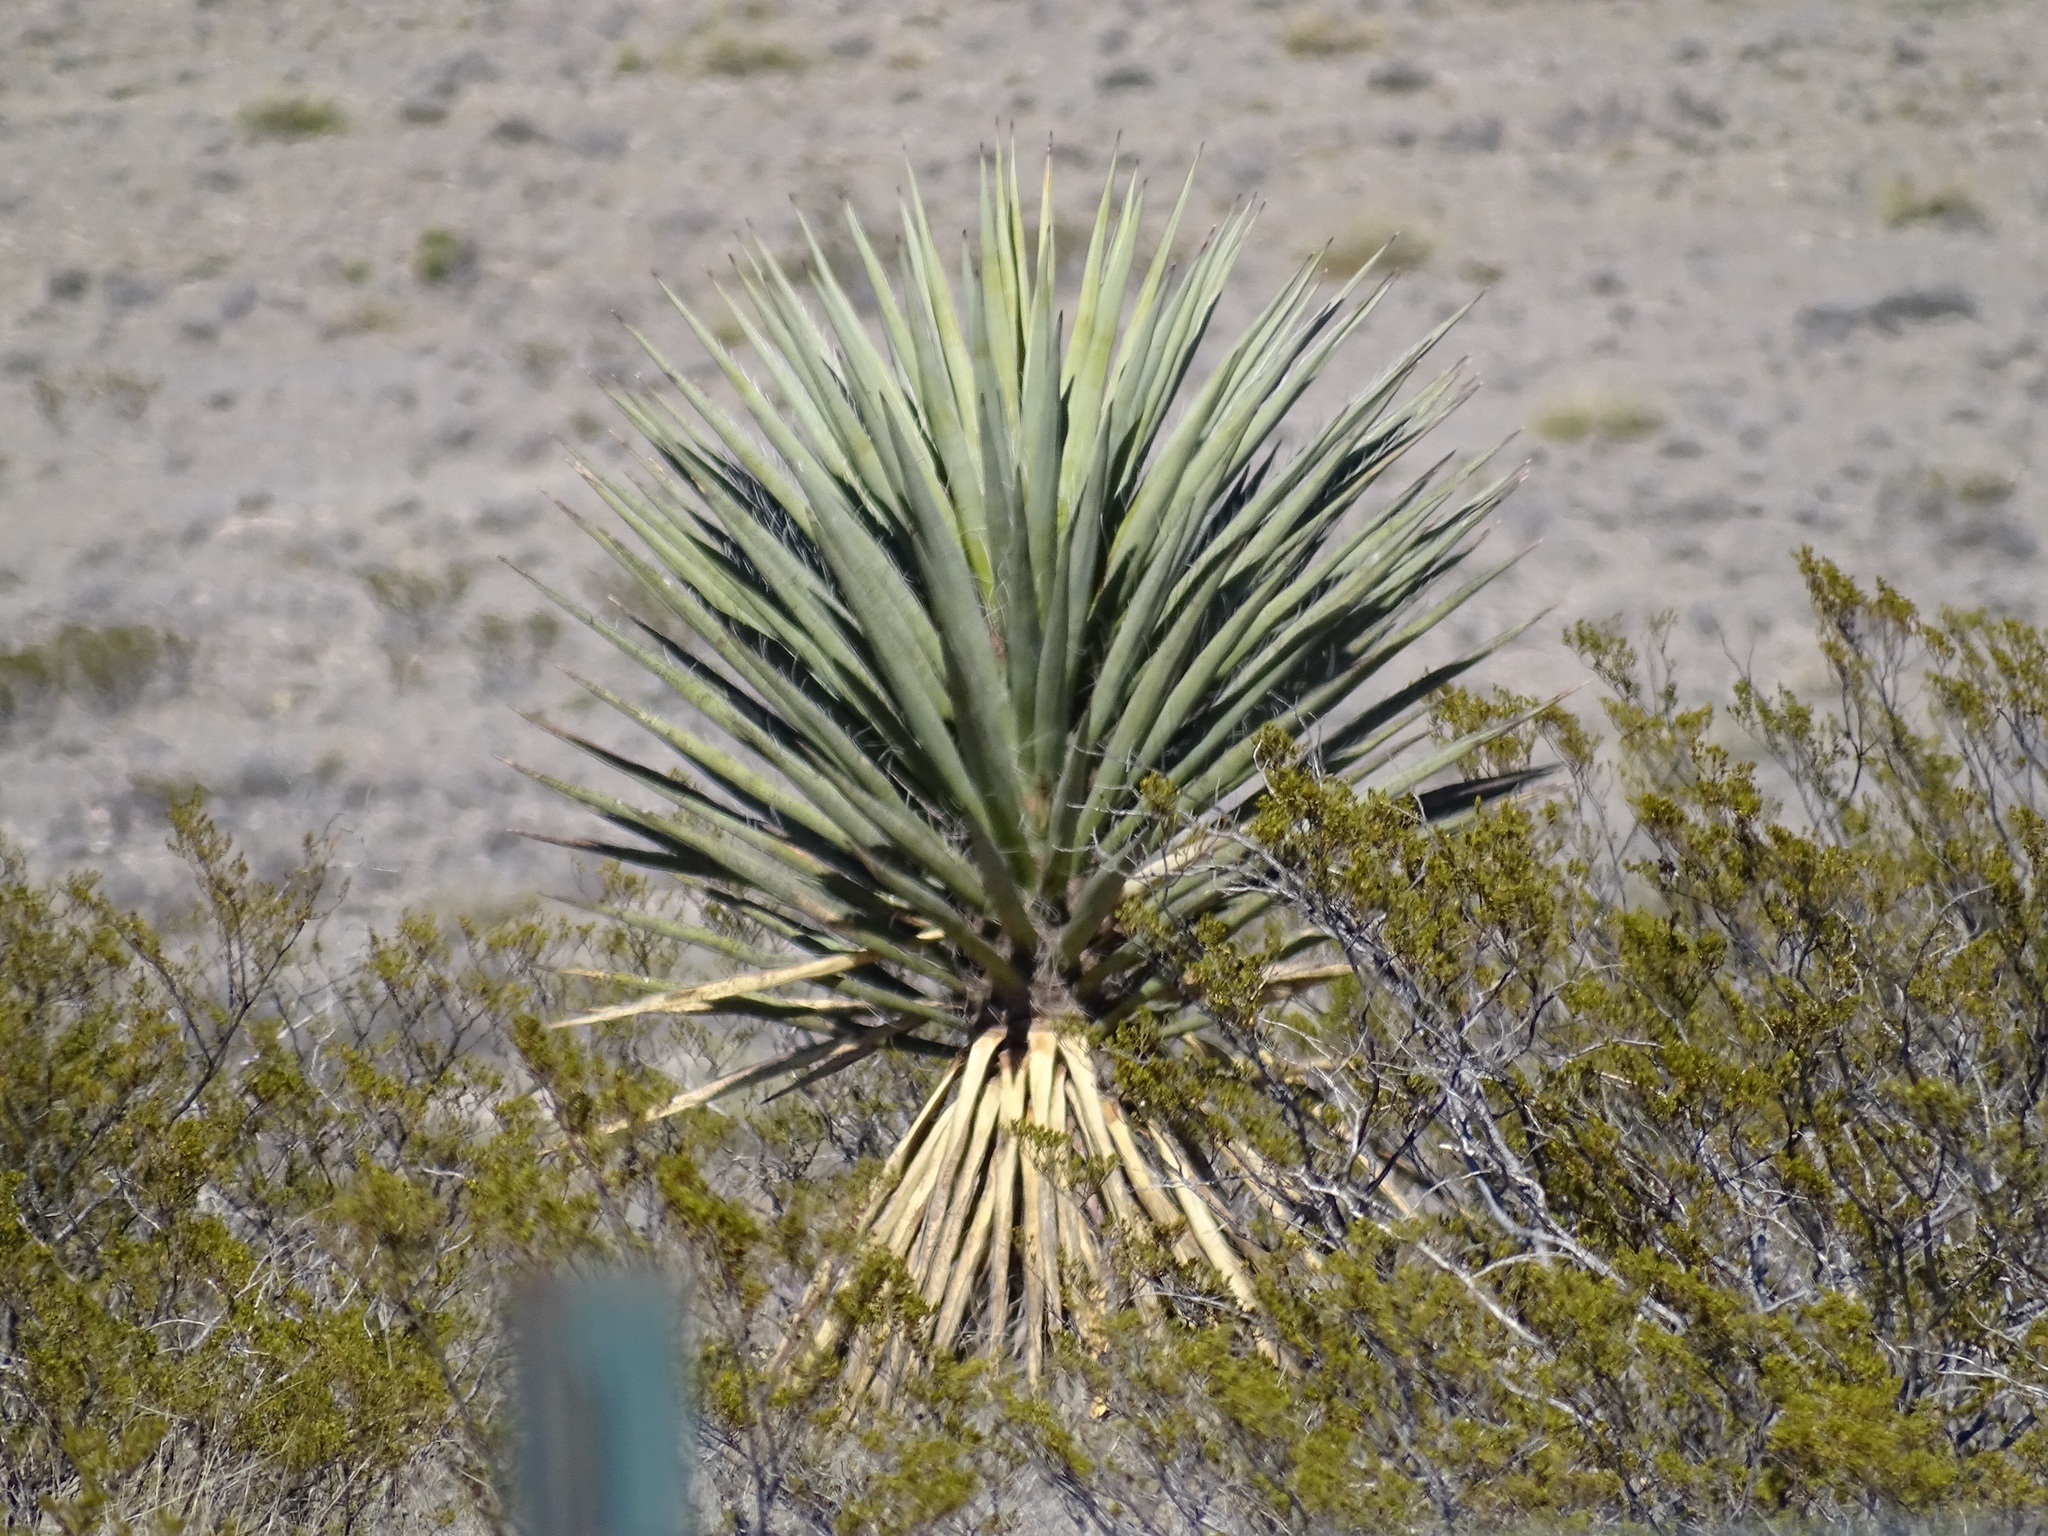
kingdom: Plantae
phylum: Tracheophyta
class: Liliopsida
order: Asparagales
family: Asparagaceae
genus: Yucca
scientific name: Yucca treculiana
